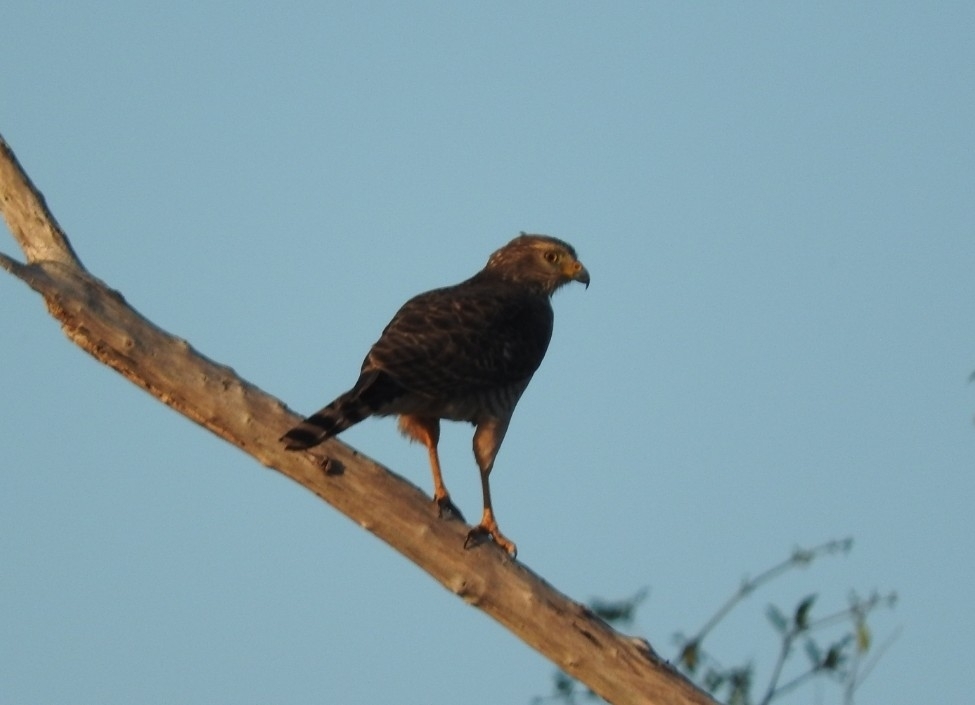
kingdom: Animalia
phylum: Chordata
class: Aves
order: Accipitriformes
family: Accipitridae
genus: Rupornis
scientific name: Rupornis magnirostris
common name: Roadside hawk
